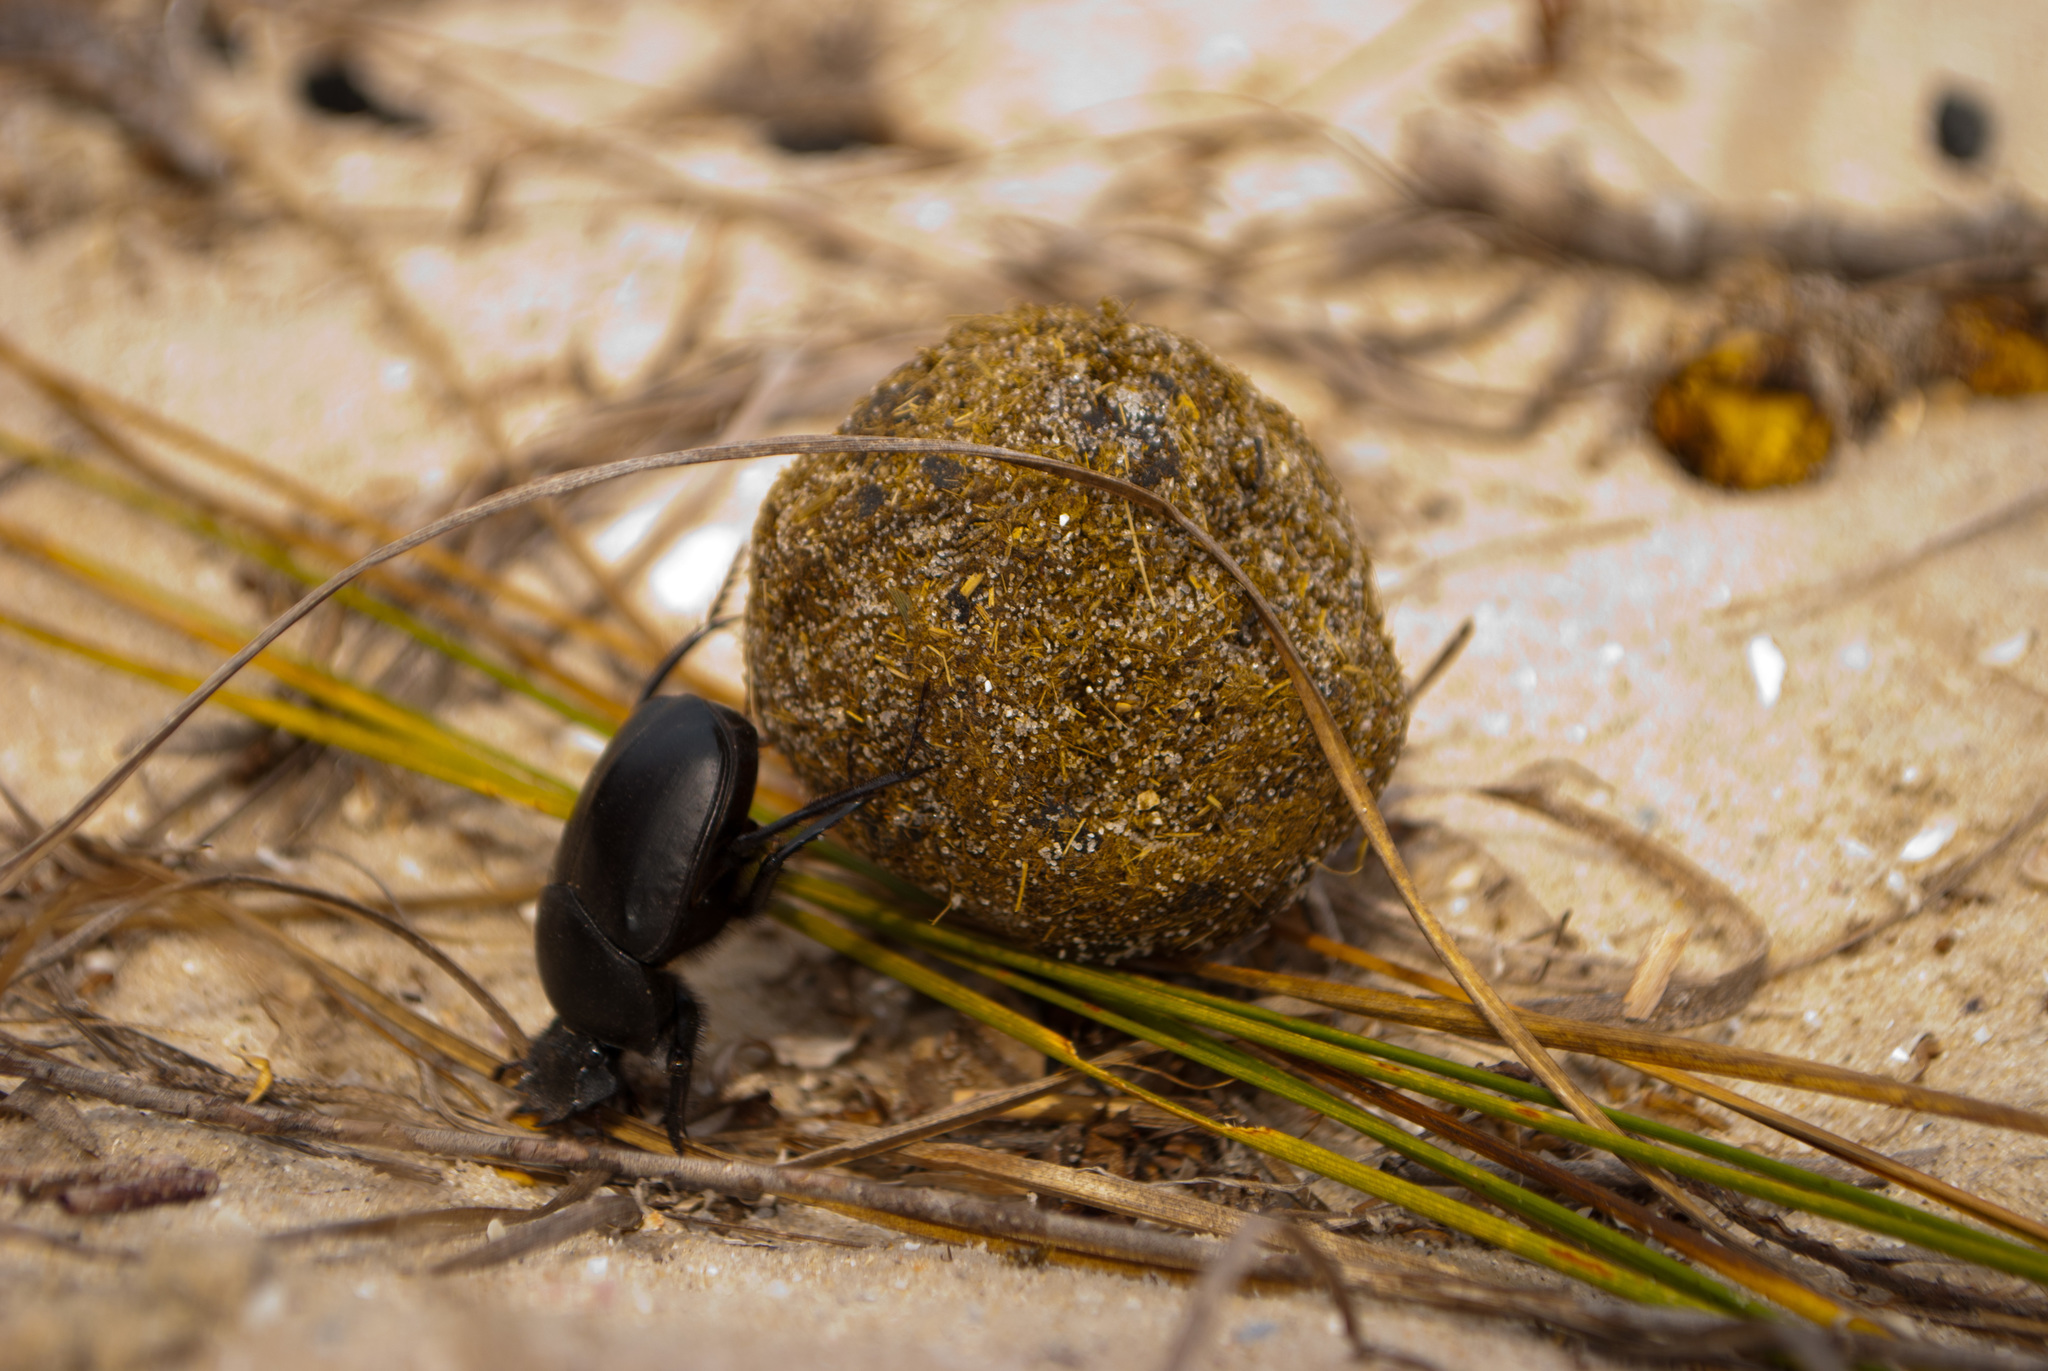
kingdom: Animalia
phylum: Arthropoda
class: Insecta
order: Coleoptera
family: Scarabaeidae
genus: Scarabaeus
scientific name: Scarabaeus typhon
